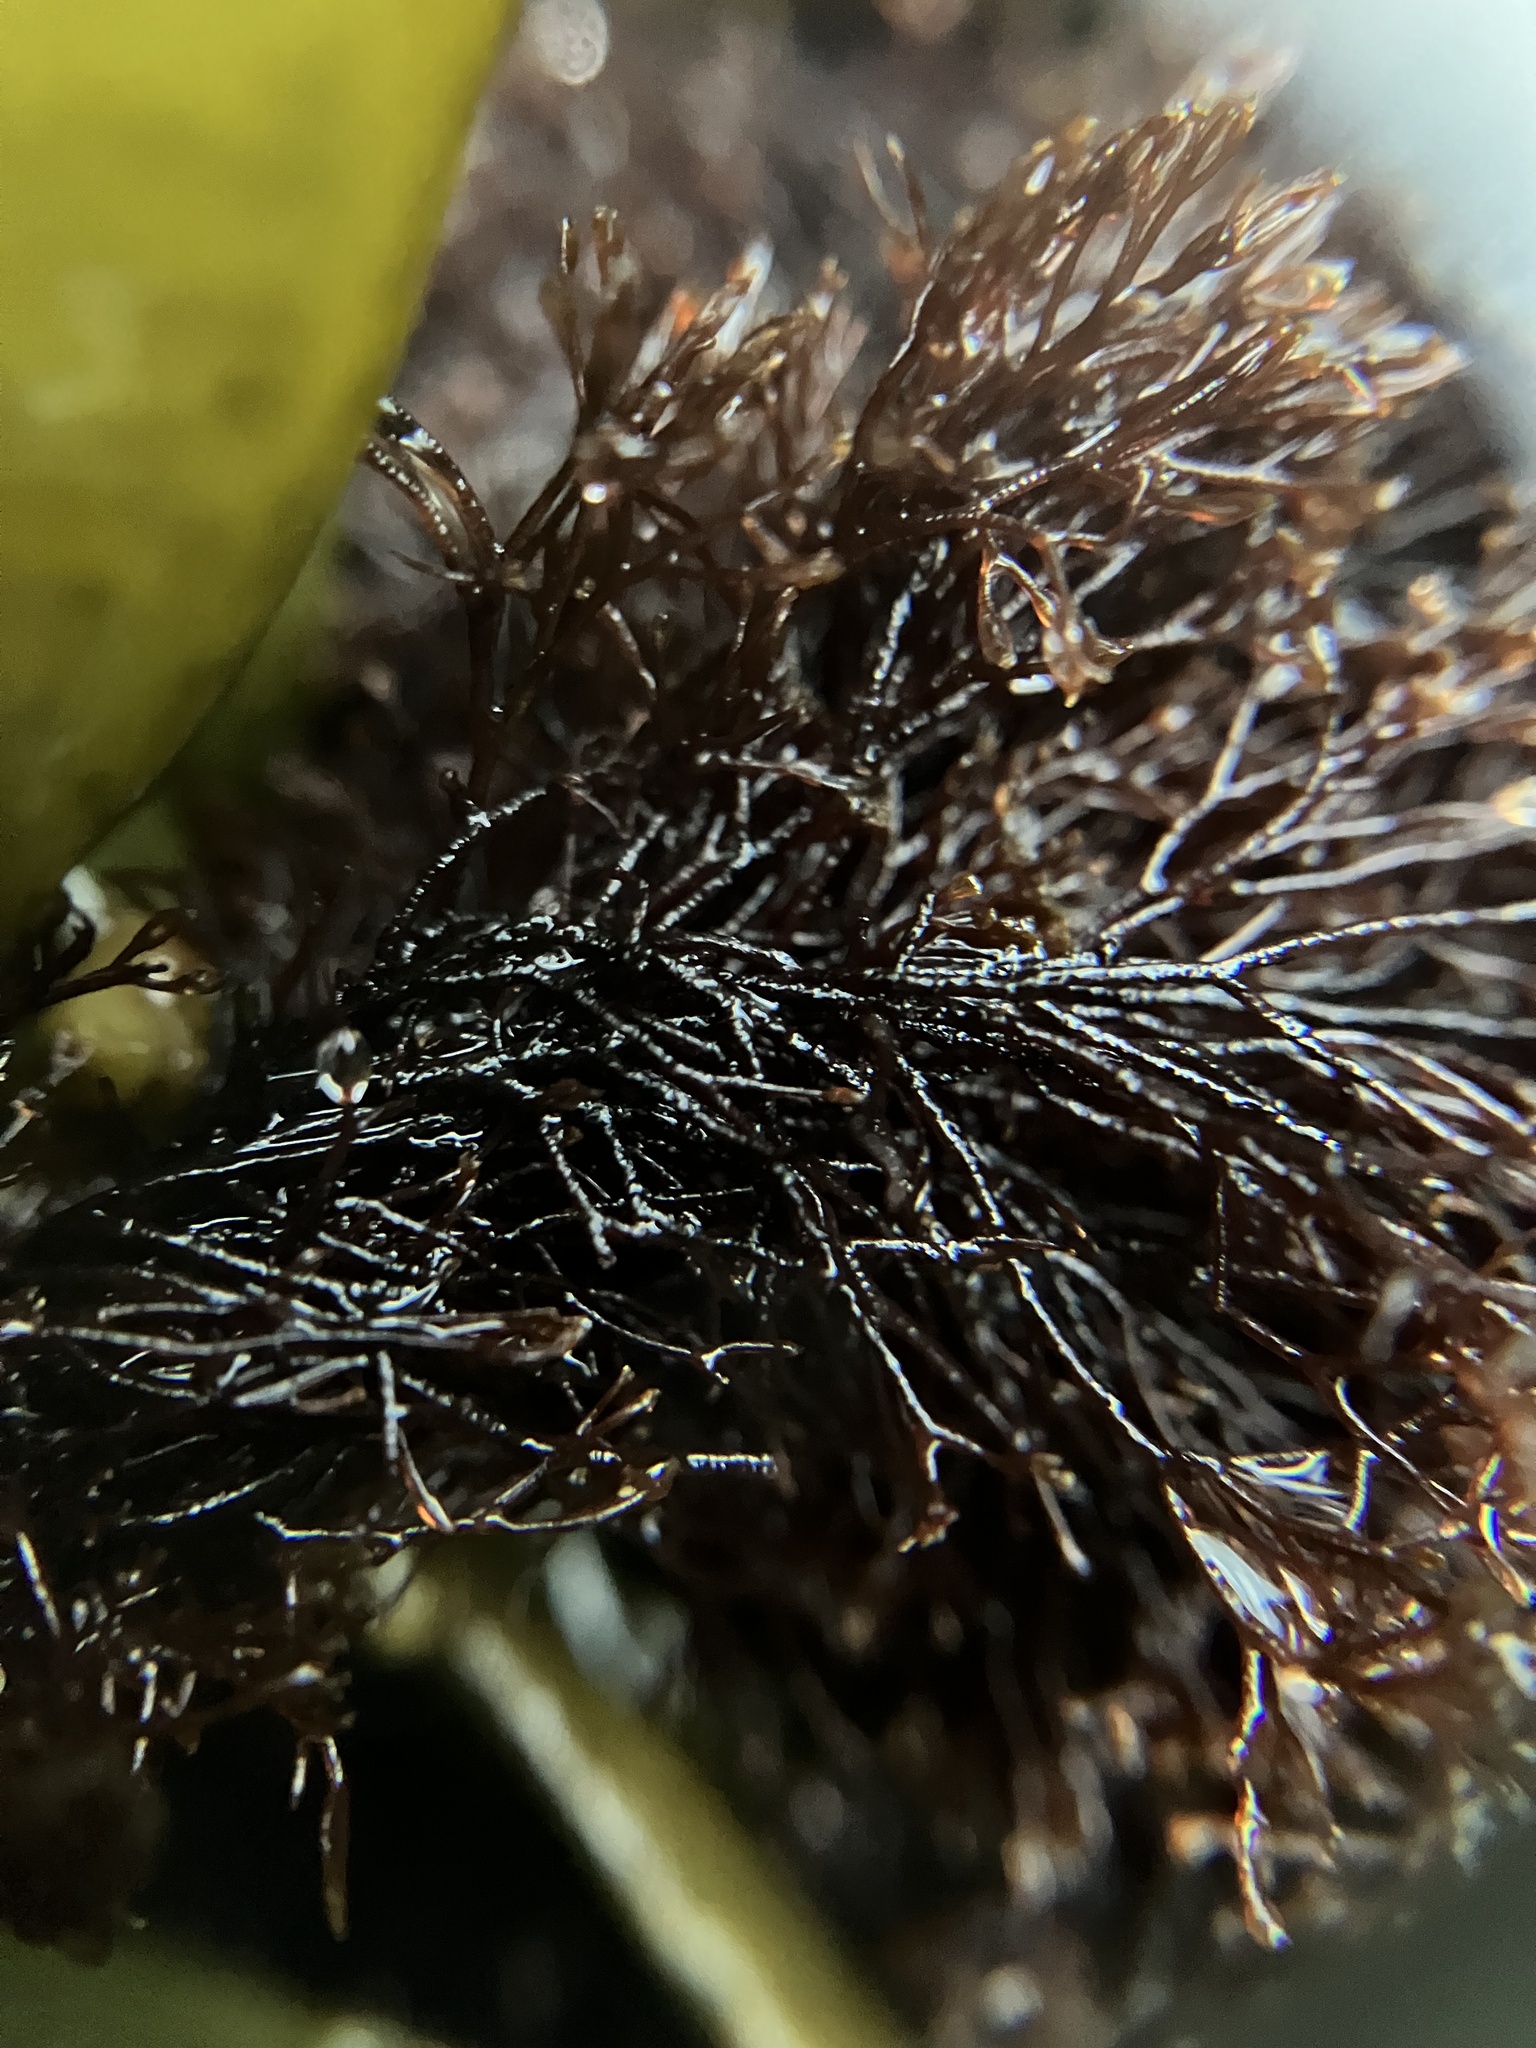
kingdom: Plantae
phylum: Rhodophyta
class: Florideophyceae
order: Ceramiales
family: Rhodomelaceae
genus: Vertebrata
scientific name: Vertebrata lanosa
